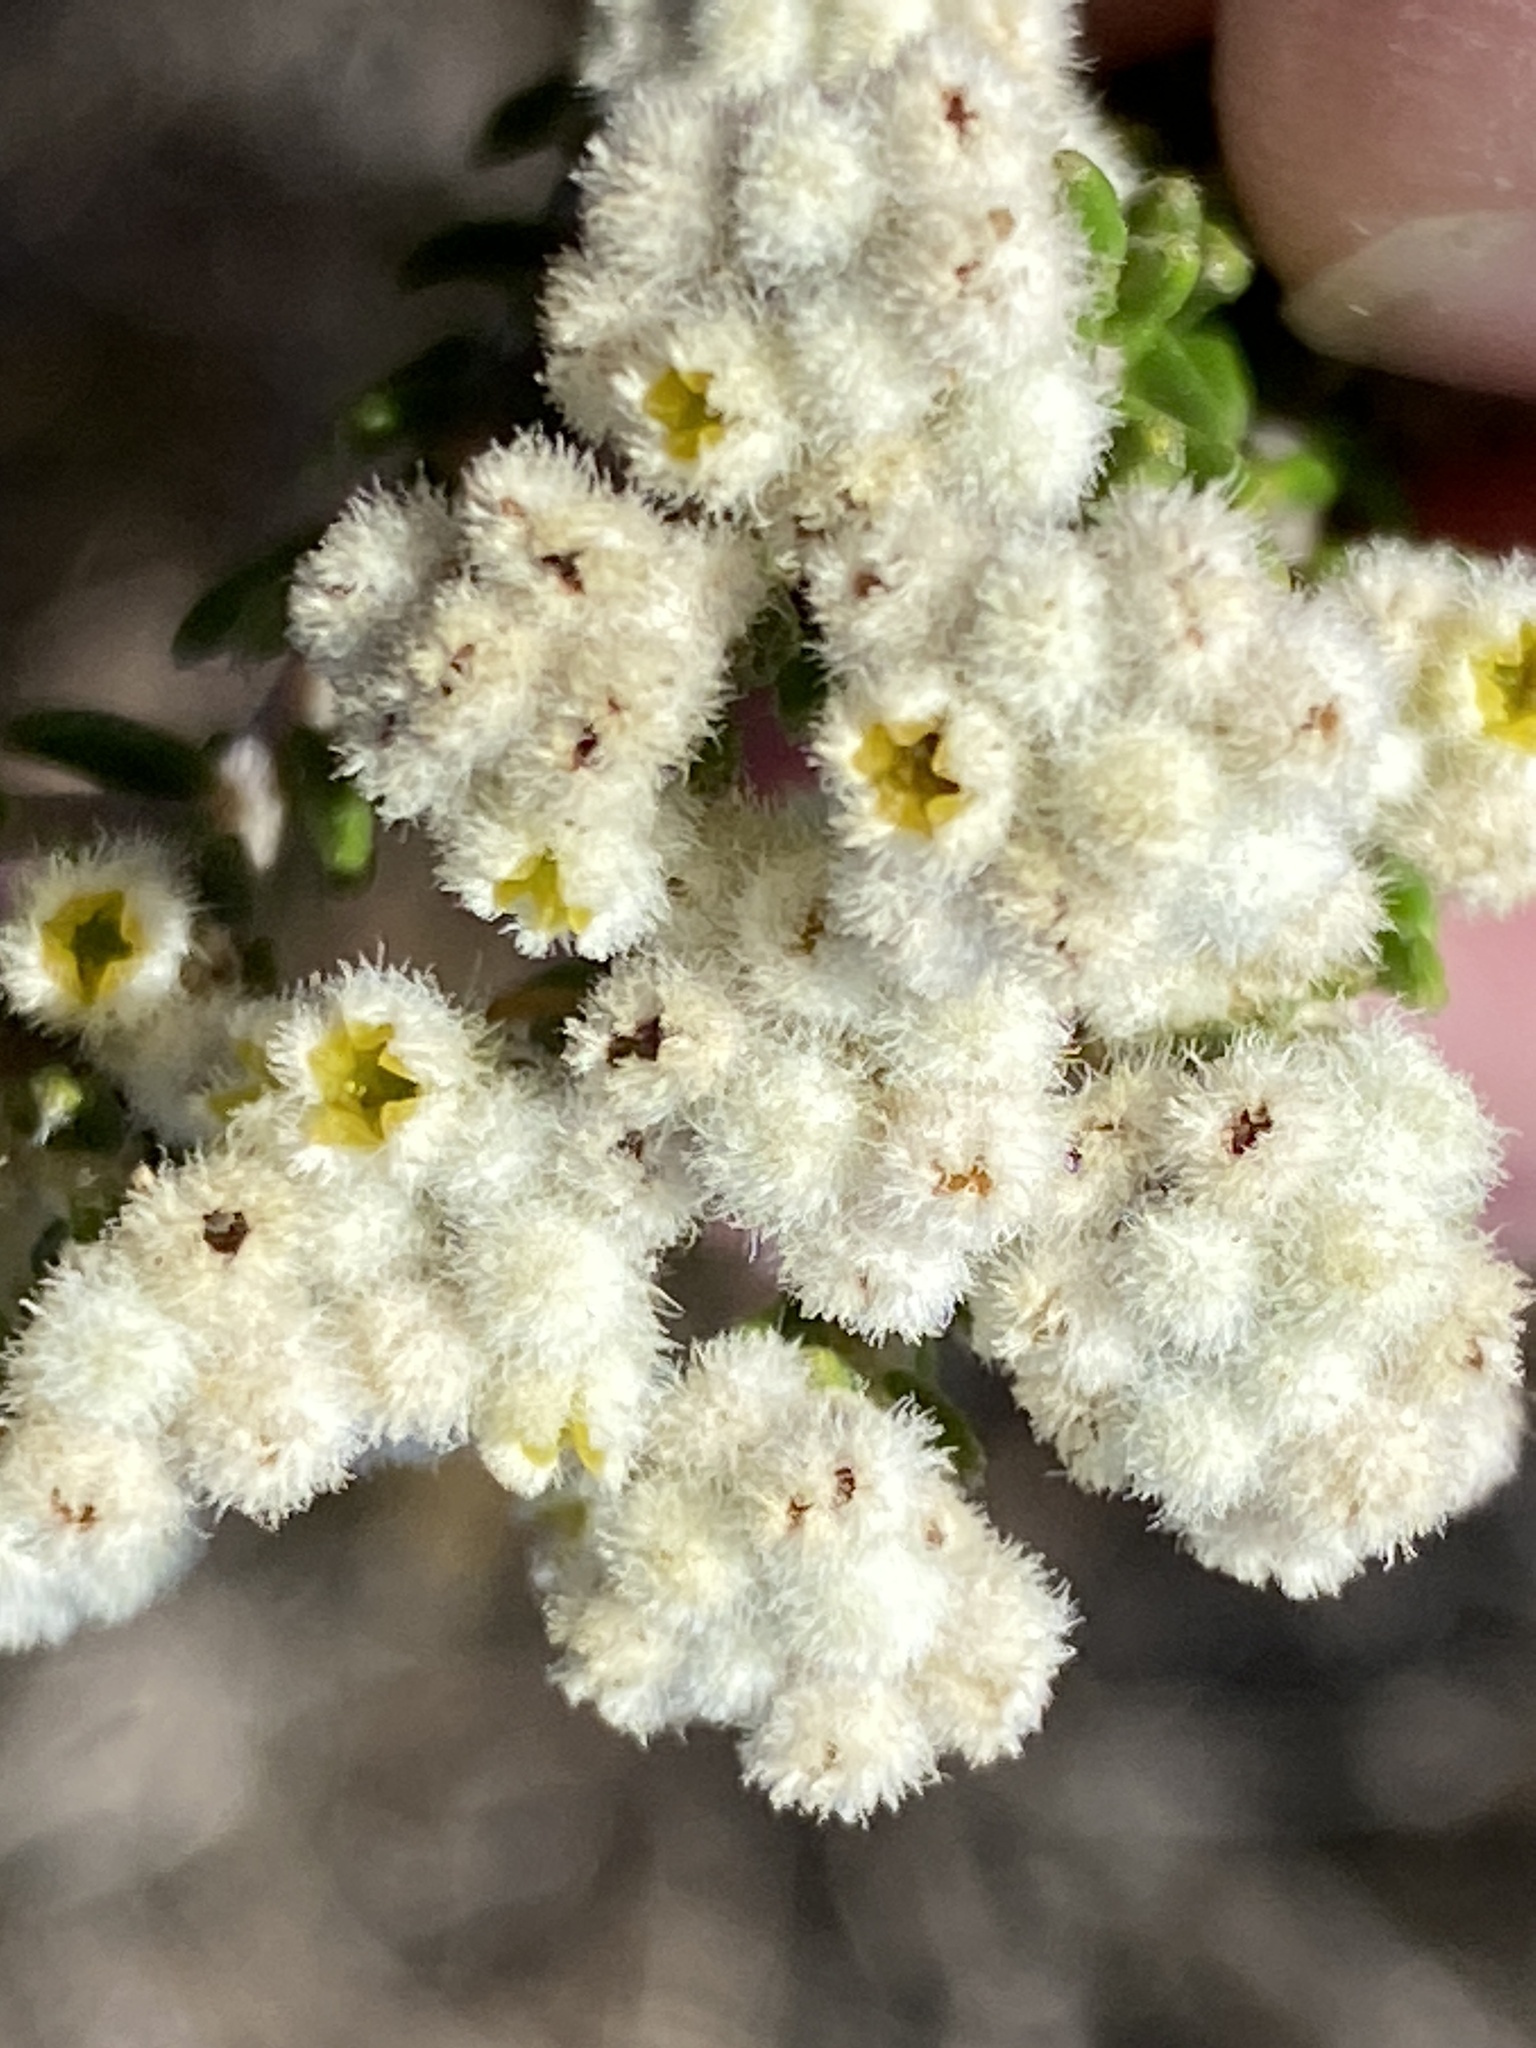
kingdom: Plantae
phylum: Tracheophyta
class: Magnoliopsida
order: Rosales
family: Rhamnaceae
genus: Phylica
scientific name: Phylica laevigata
